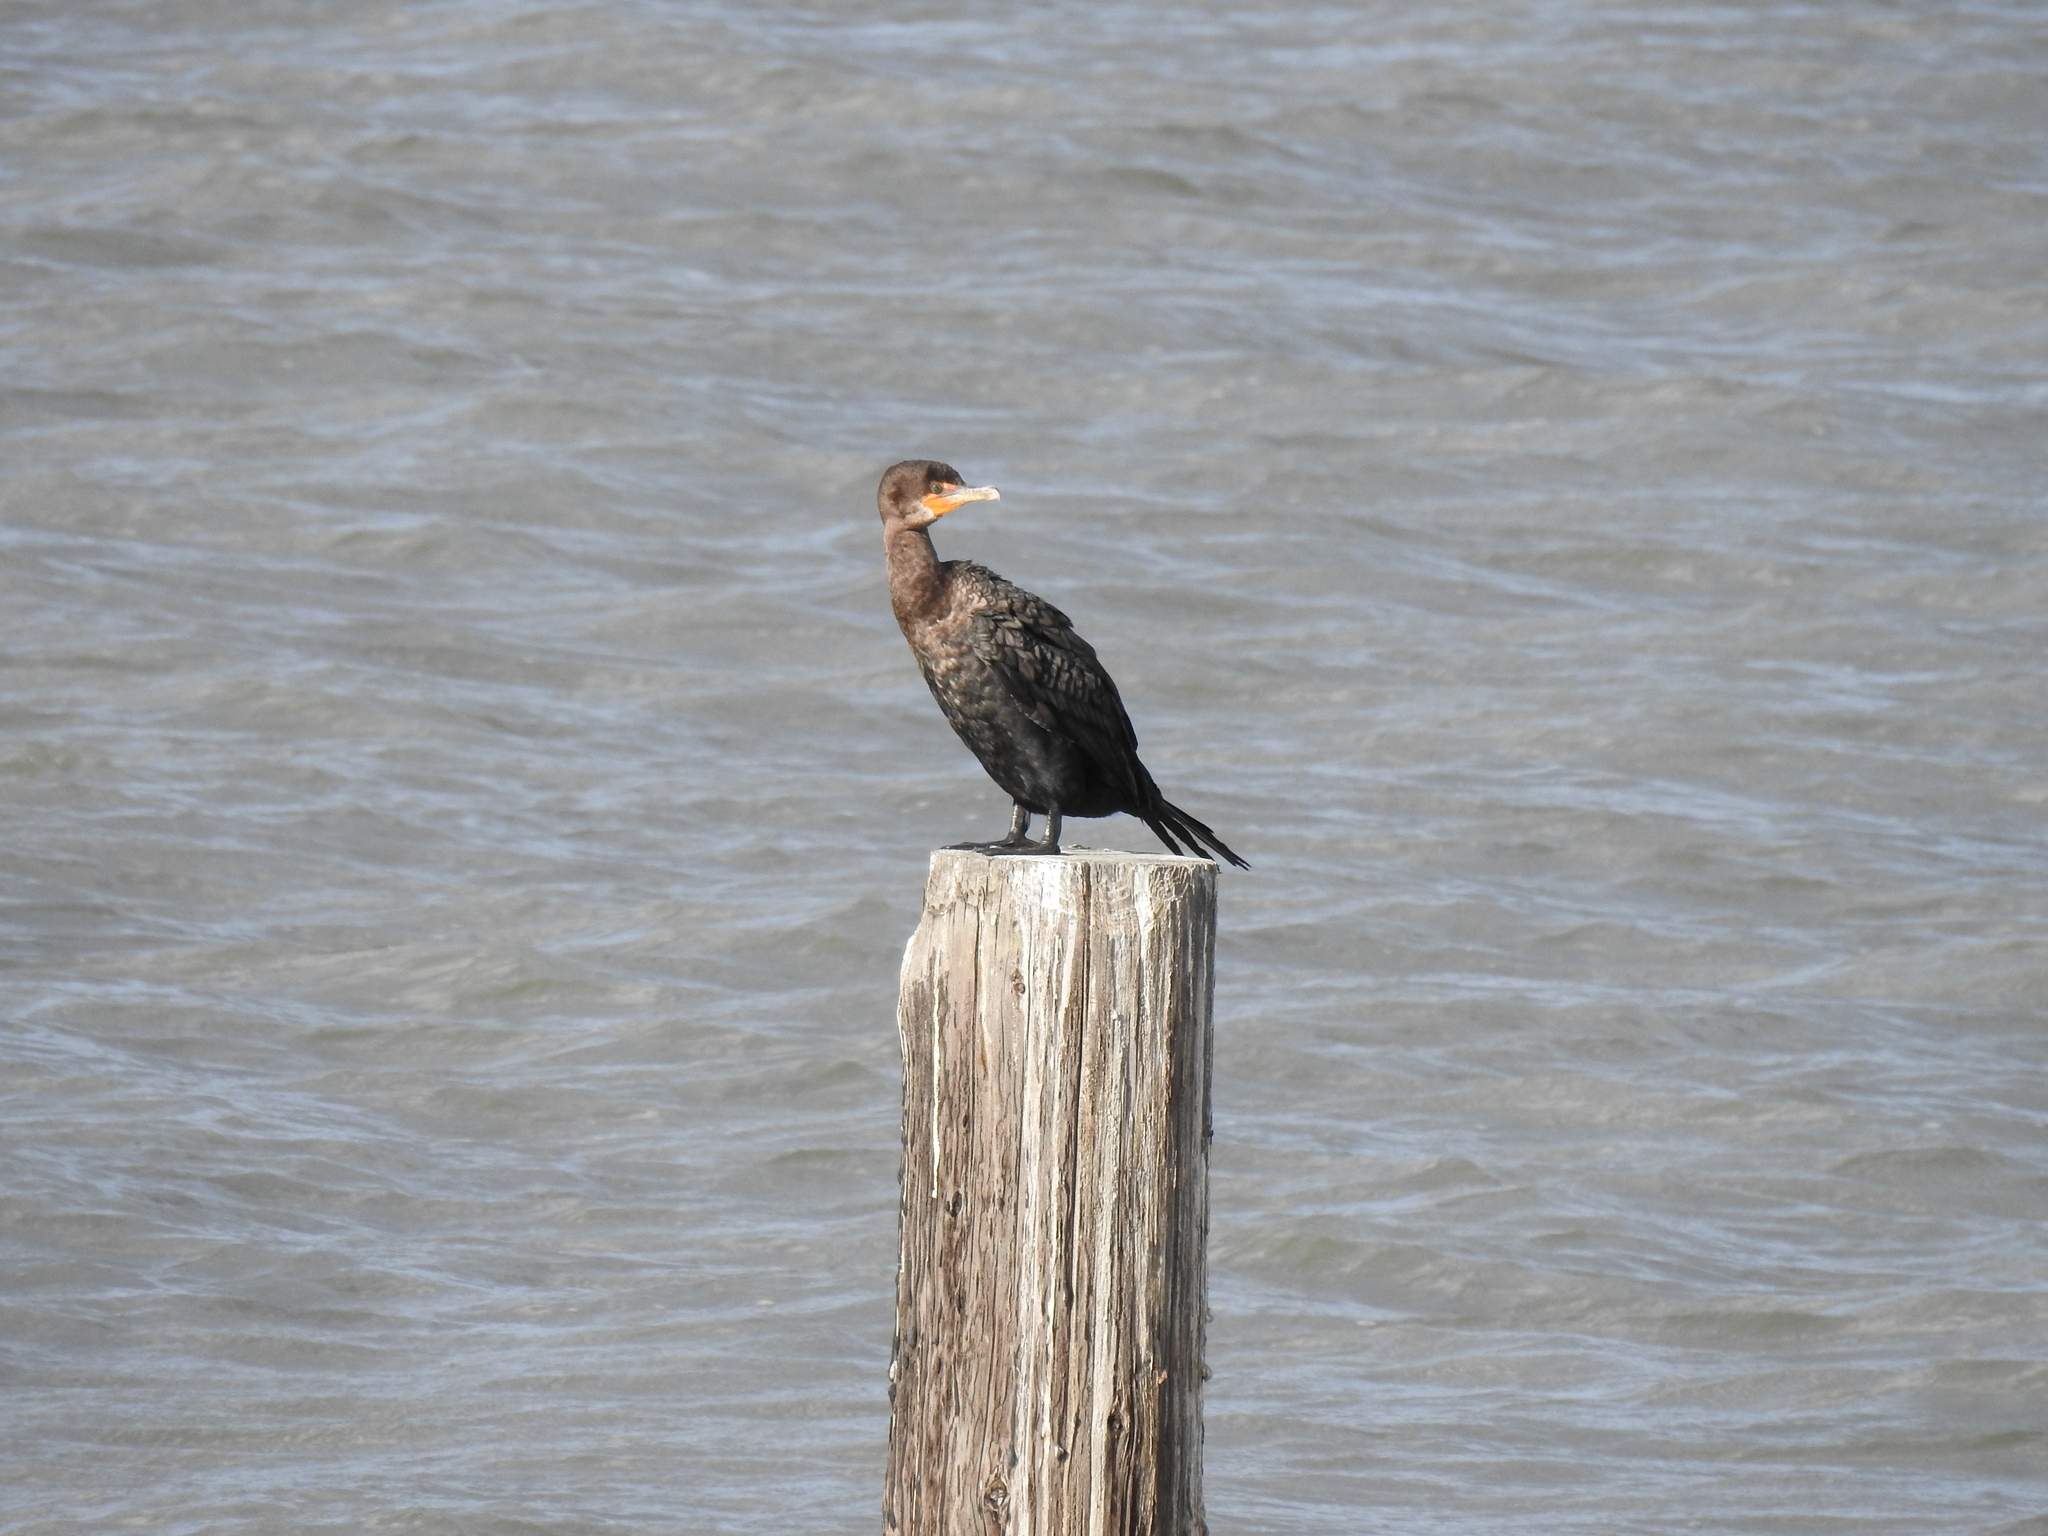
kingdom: Animalia
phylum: Chordata
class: Aves
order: Suliformes
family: Phalacrocoracidae
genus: Phalacrocorax
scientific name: Phalacrocorax auritus
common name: Double-crested cormorant
